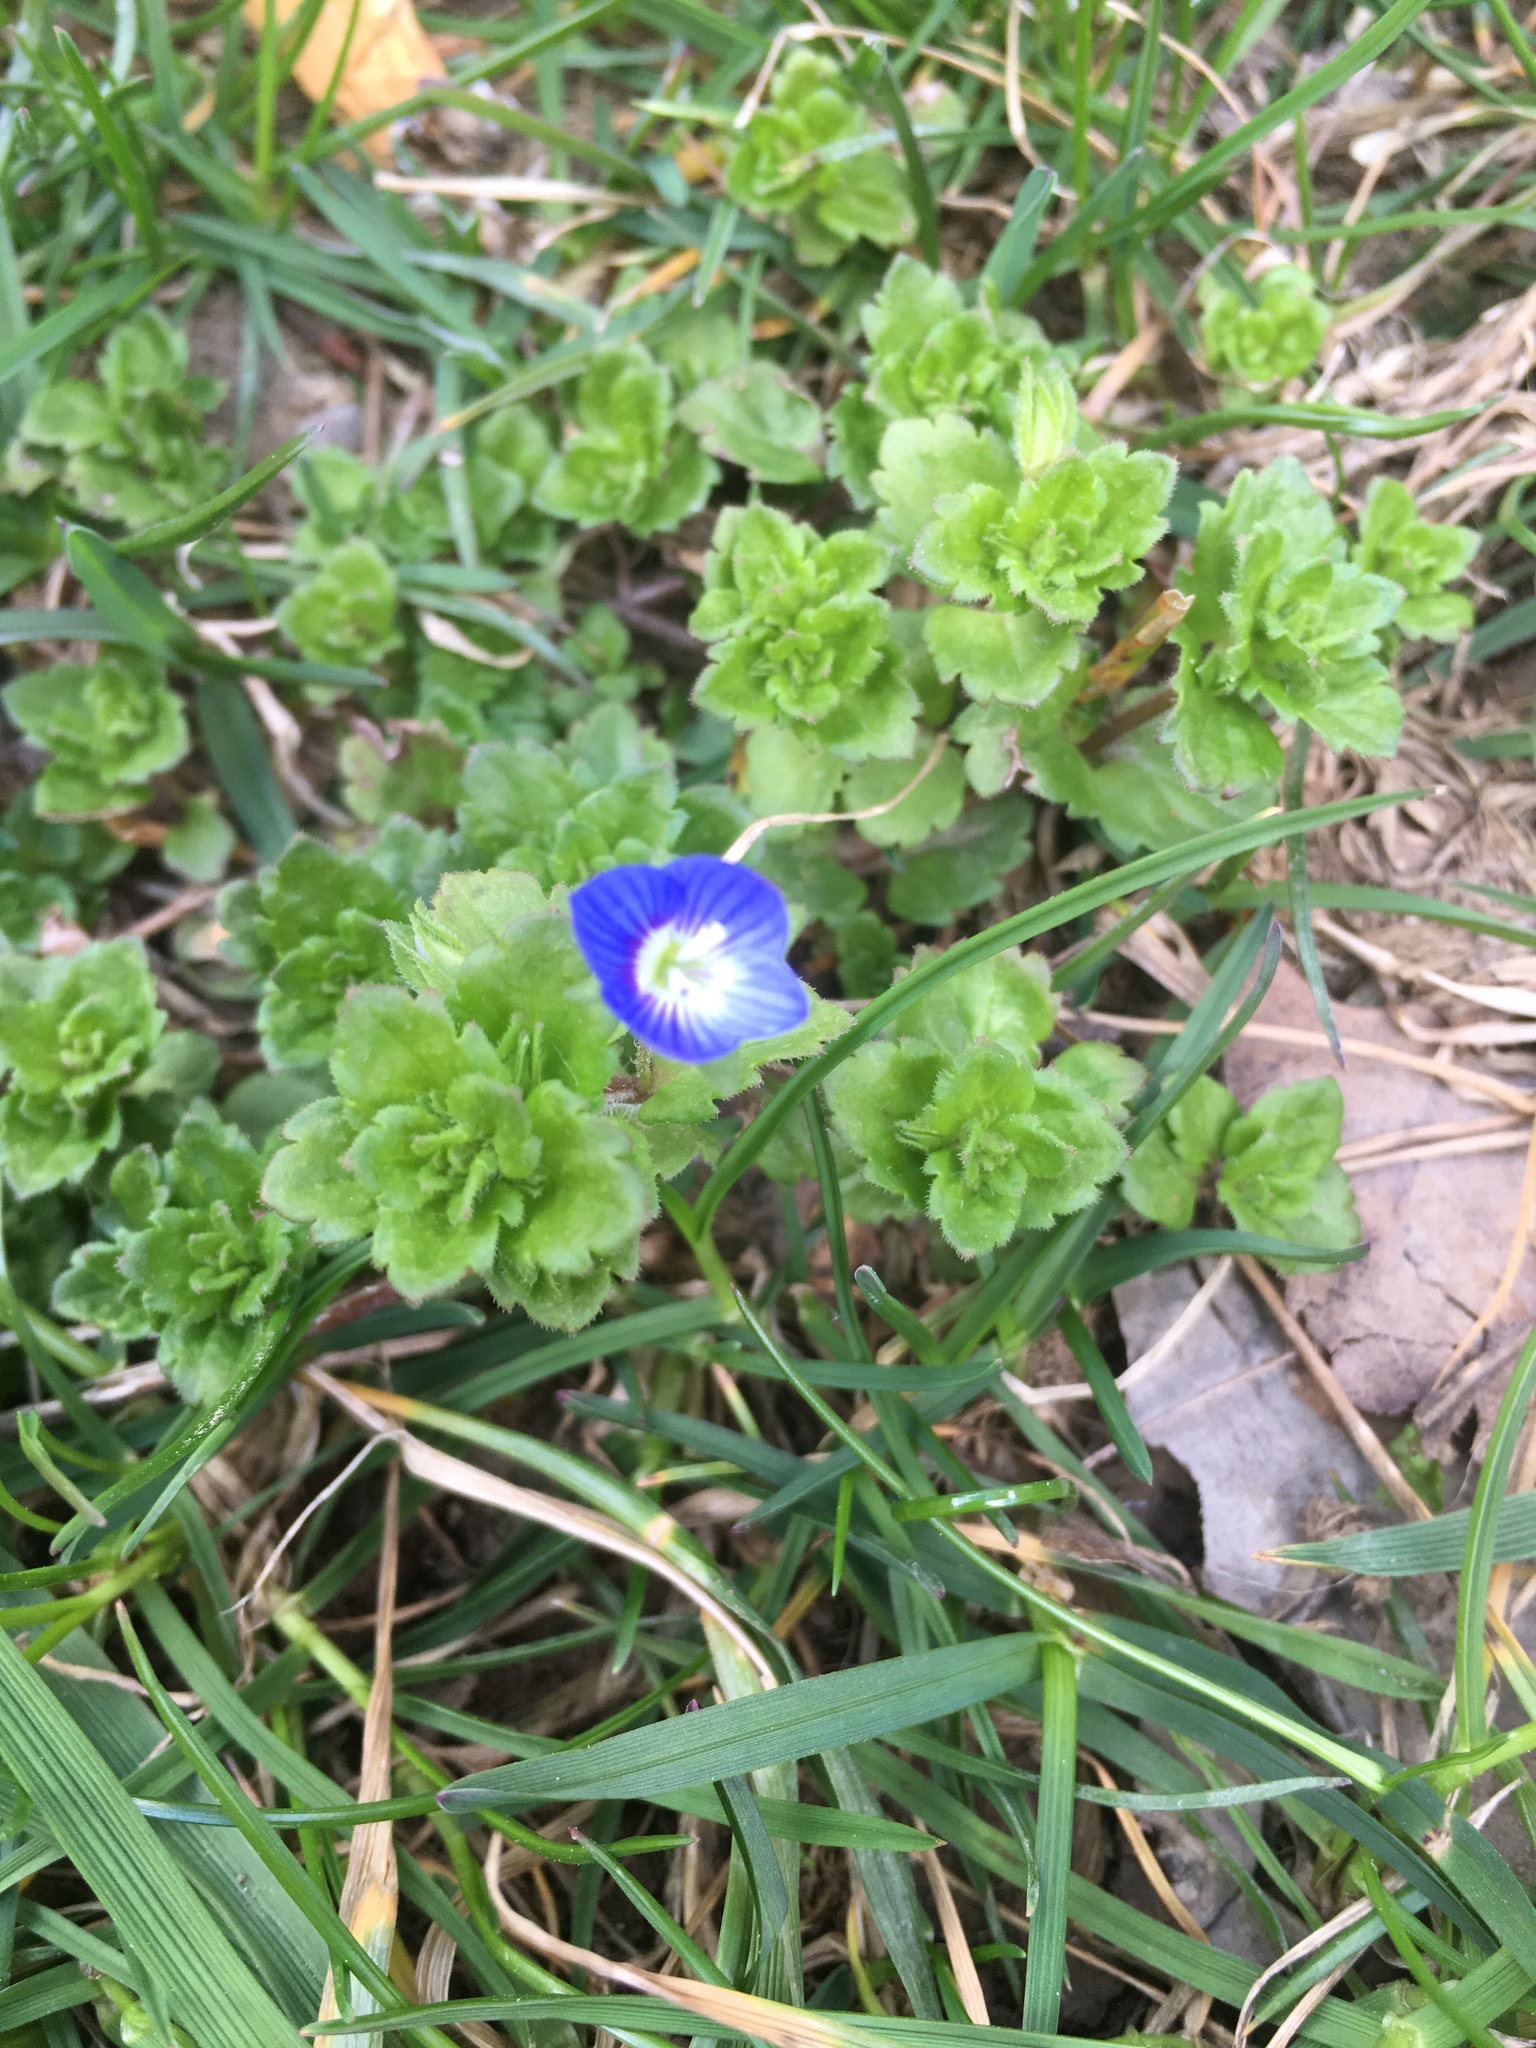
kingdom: Plantae
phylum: Tracheophyta
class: Magnoliopsida
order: Lamiales
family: Plantaginaceae
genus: Veronica
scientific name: Veronica persica
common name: Common field-speedwell
